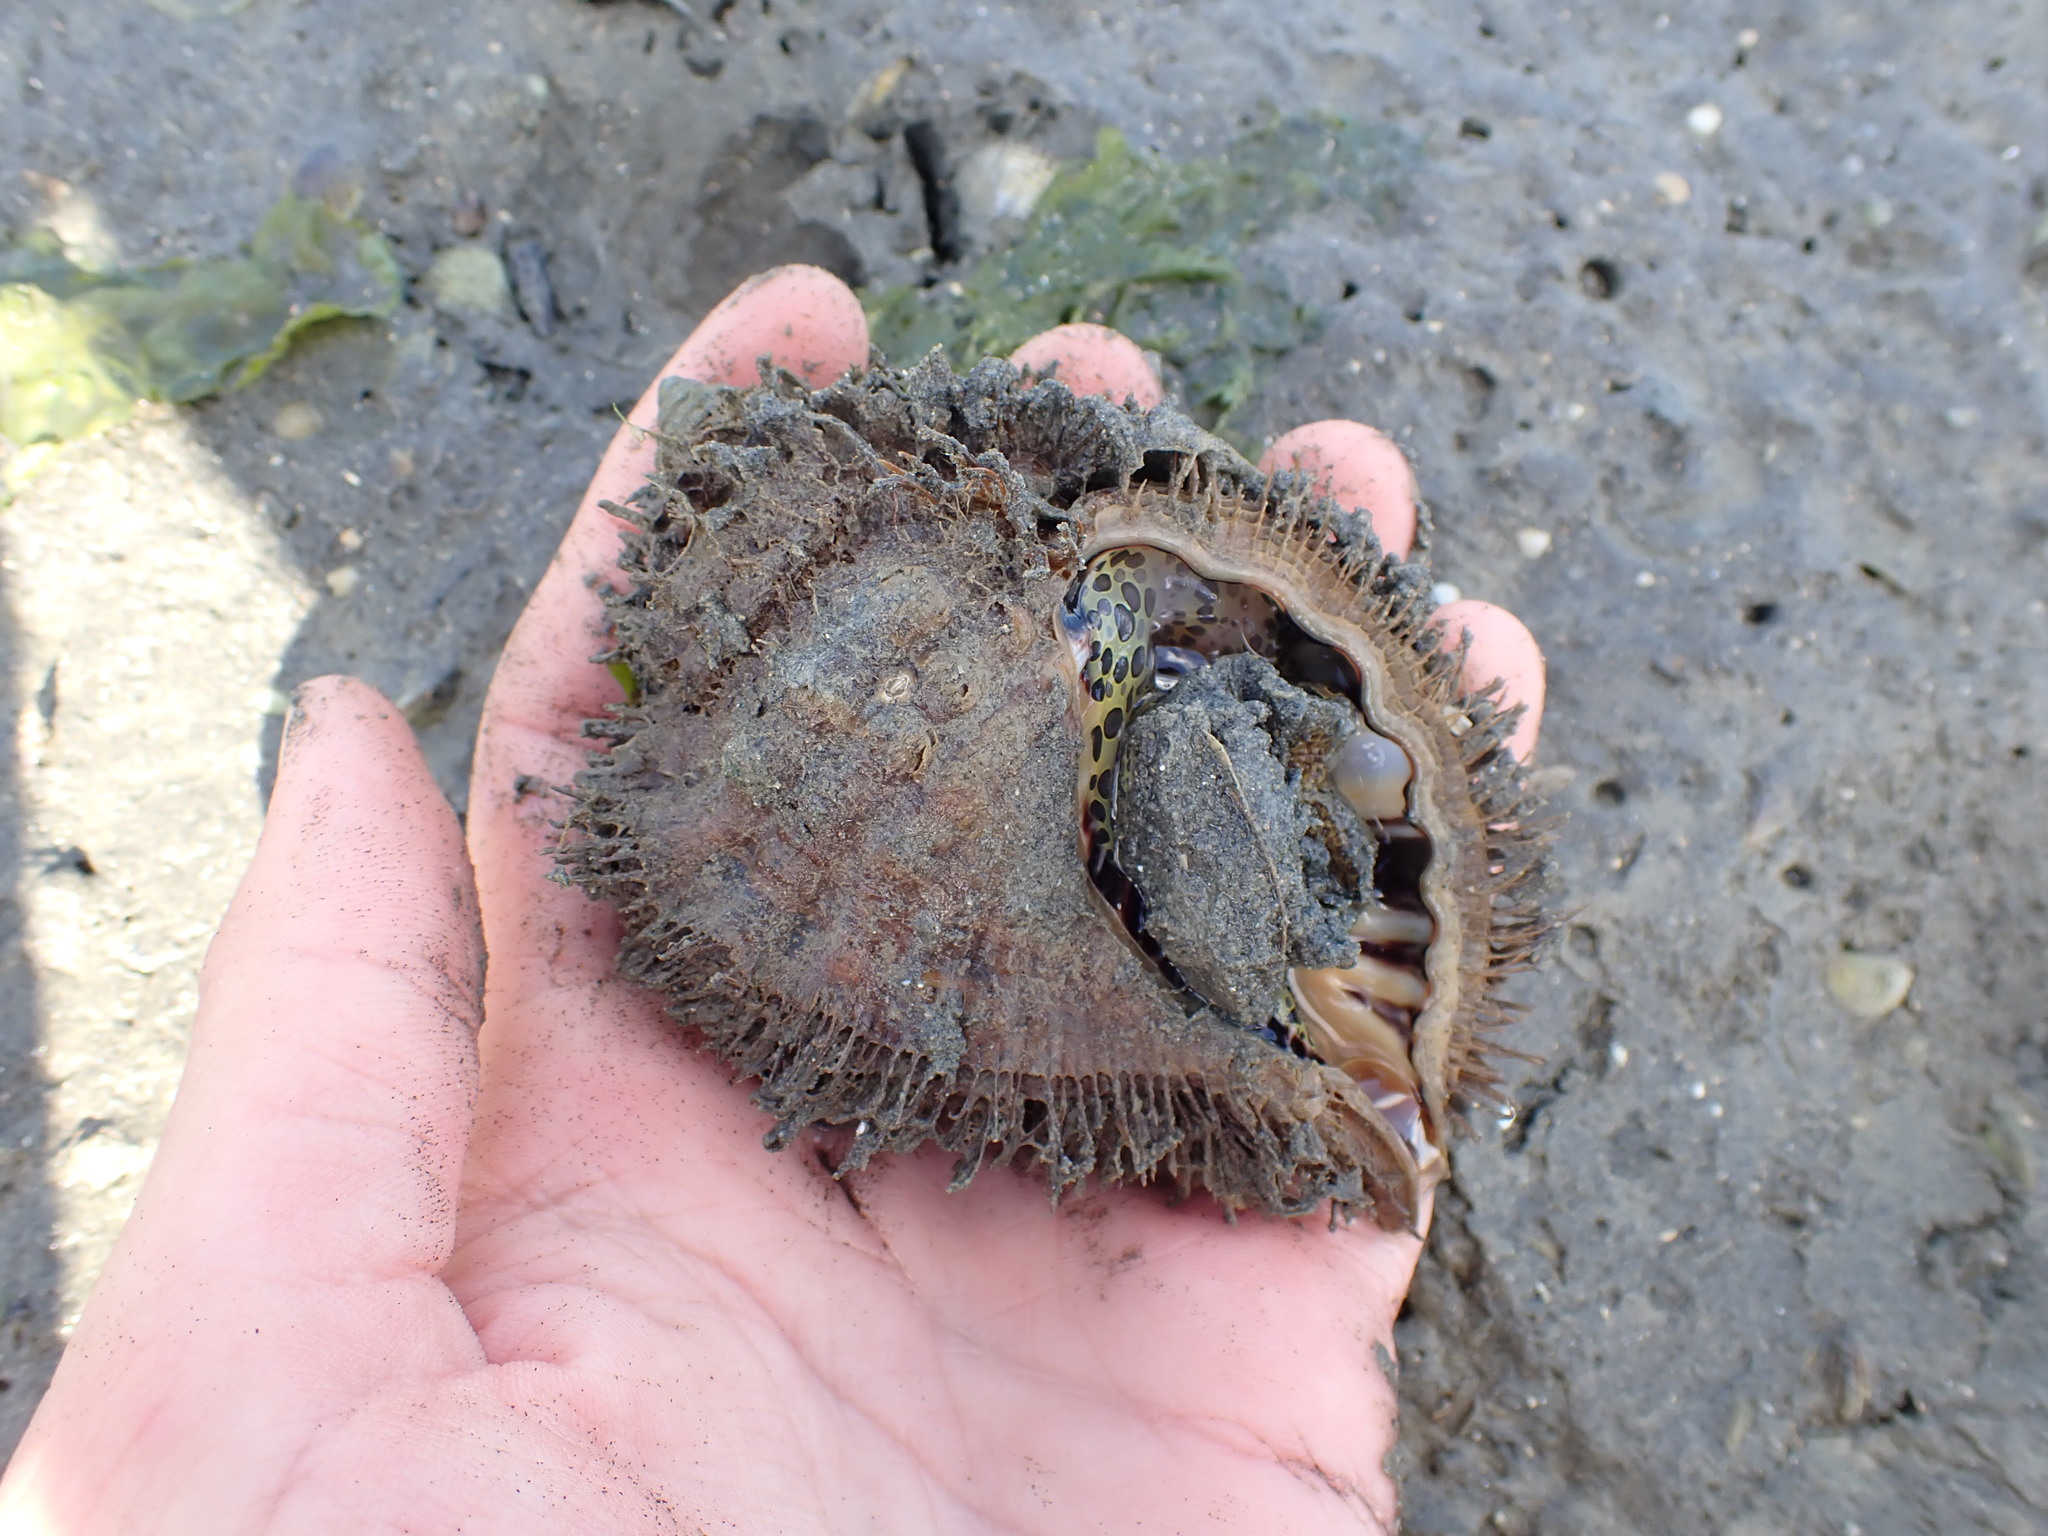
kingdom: Animalia
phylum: Mollusca
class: Gastropoda
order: Littorinimorpha
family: Cymatiidae
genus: Monoplex
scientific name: Monoplex parthenopeus
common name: Giant triton
